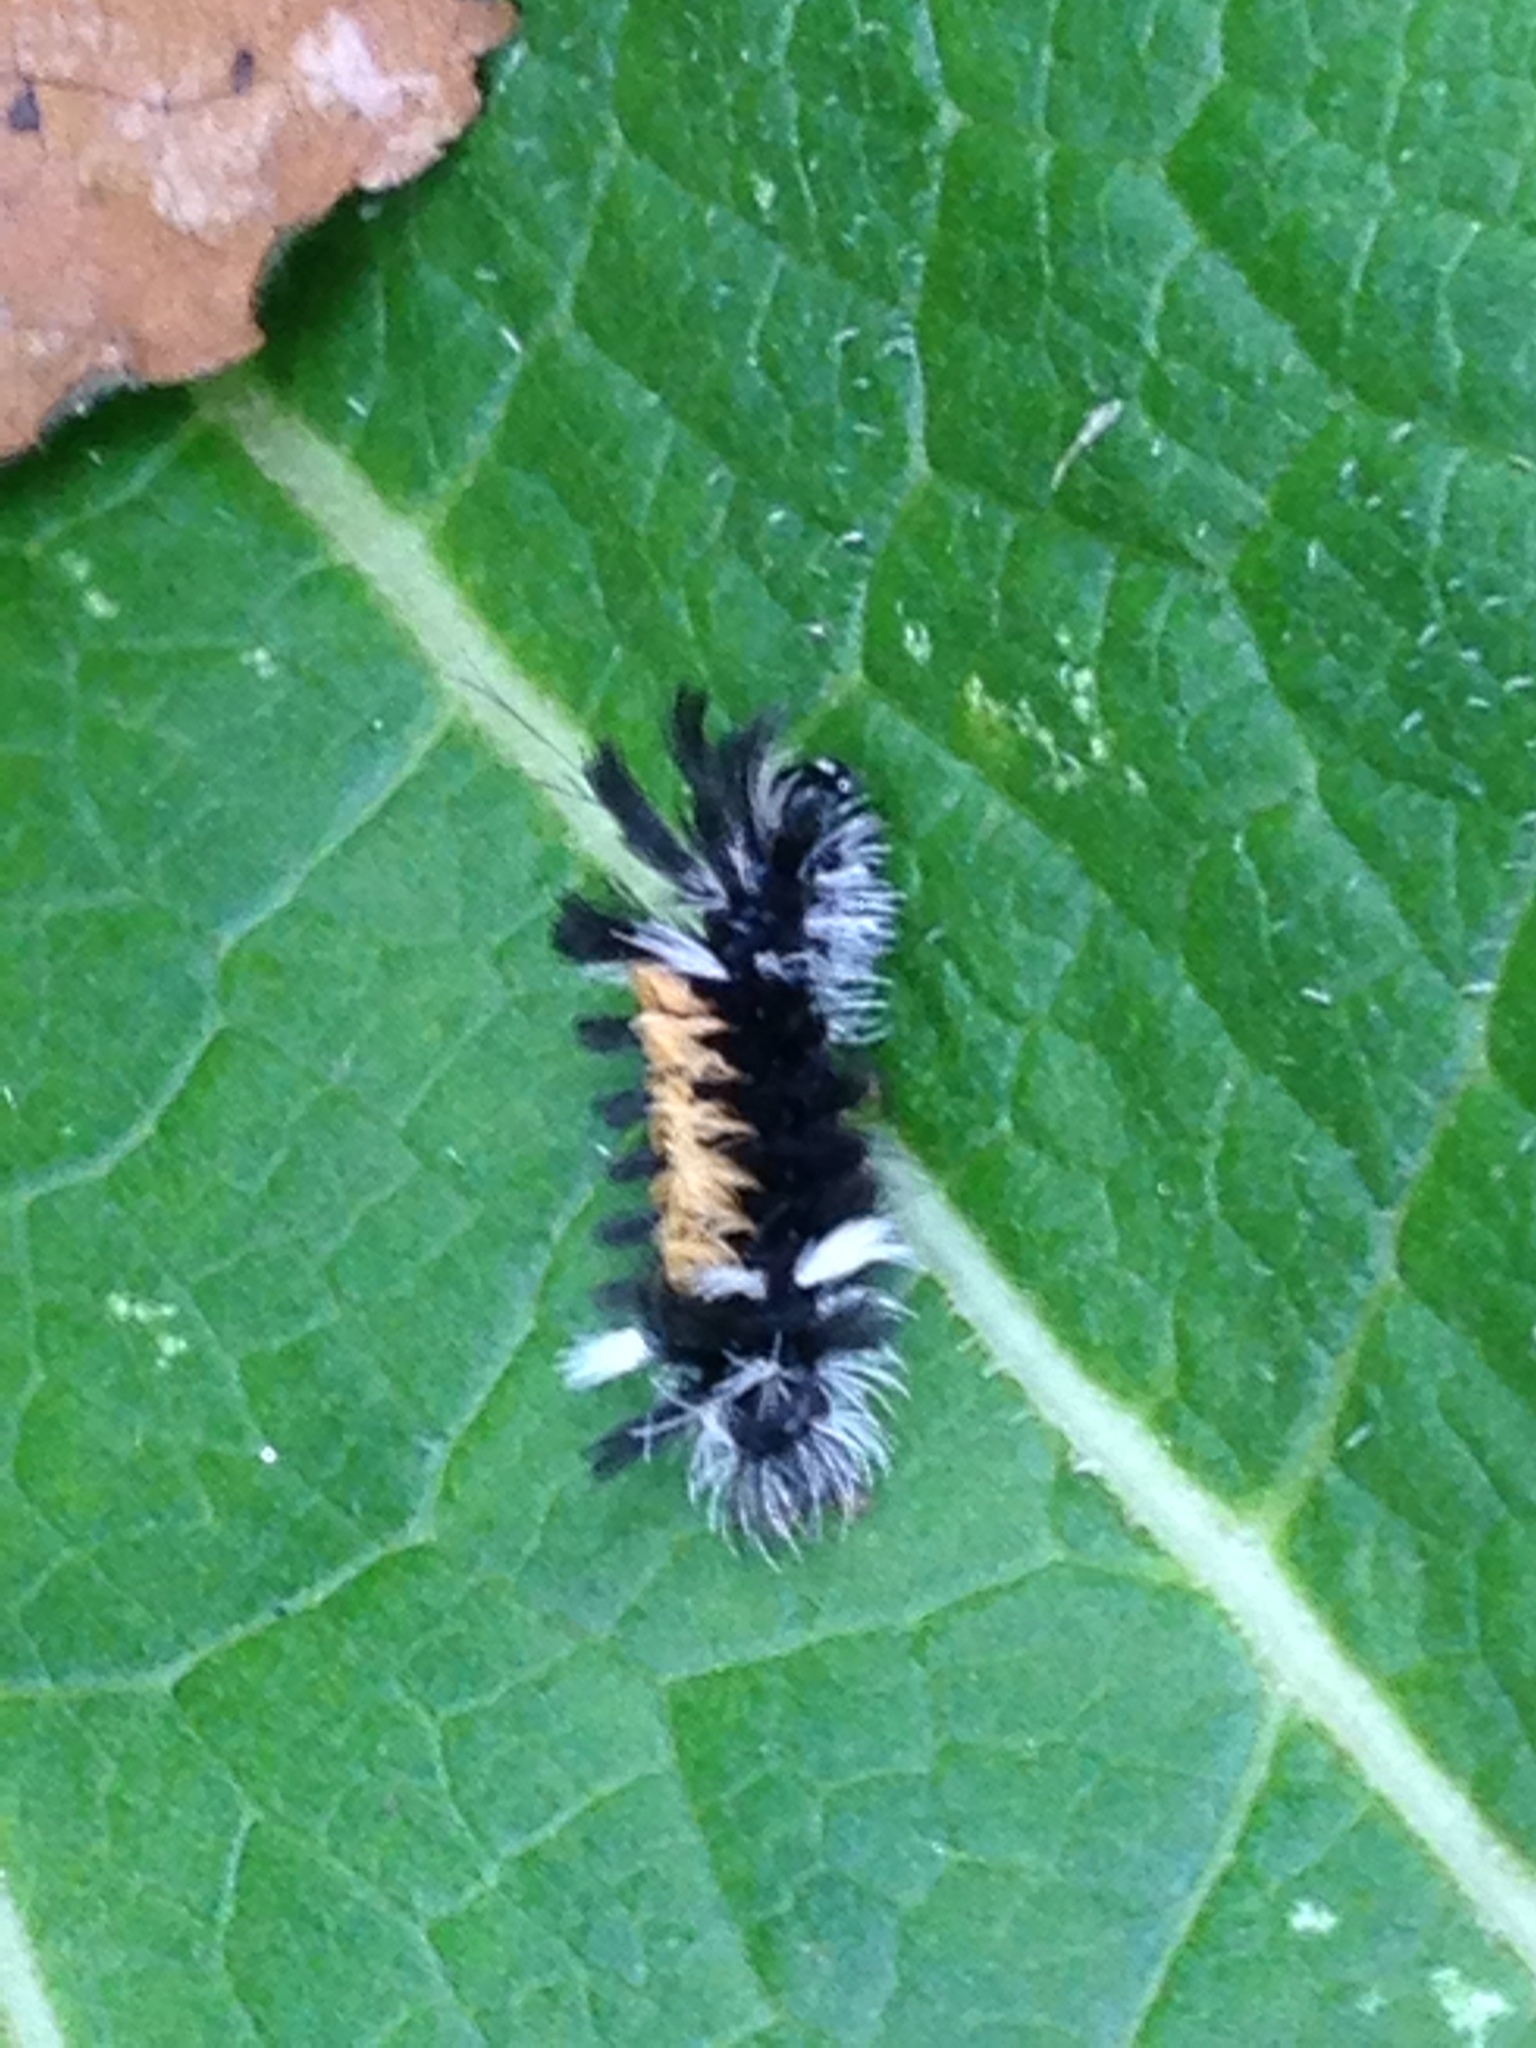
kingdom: Animalia
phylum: Arthropoda
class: Insecta
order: Lepidoptera
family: Erebidae
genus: Euchaetes
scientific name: Euchaetes egle
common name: Milkweed tussock moth
